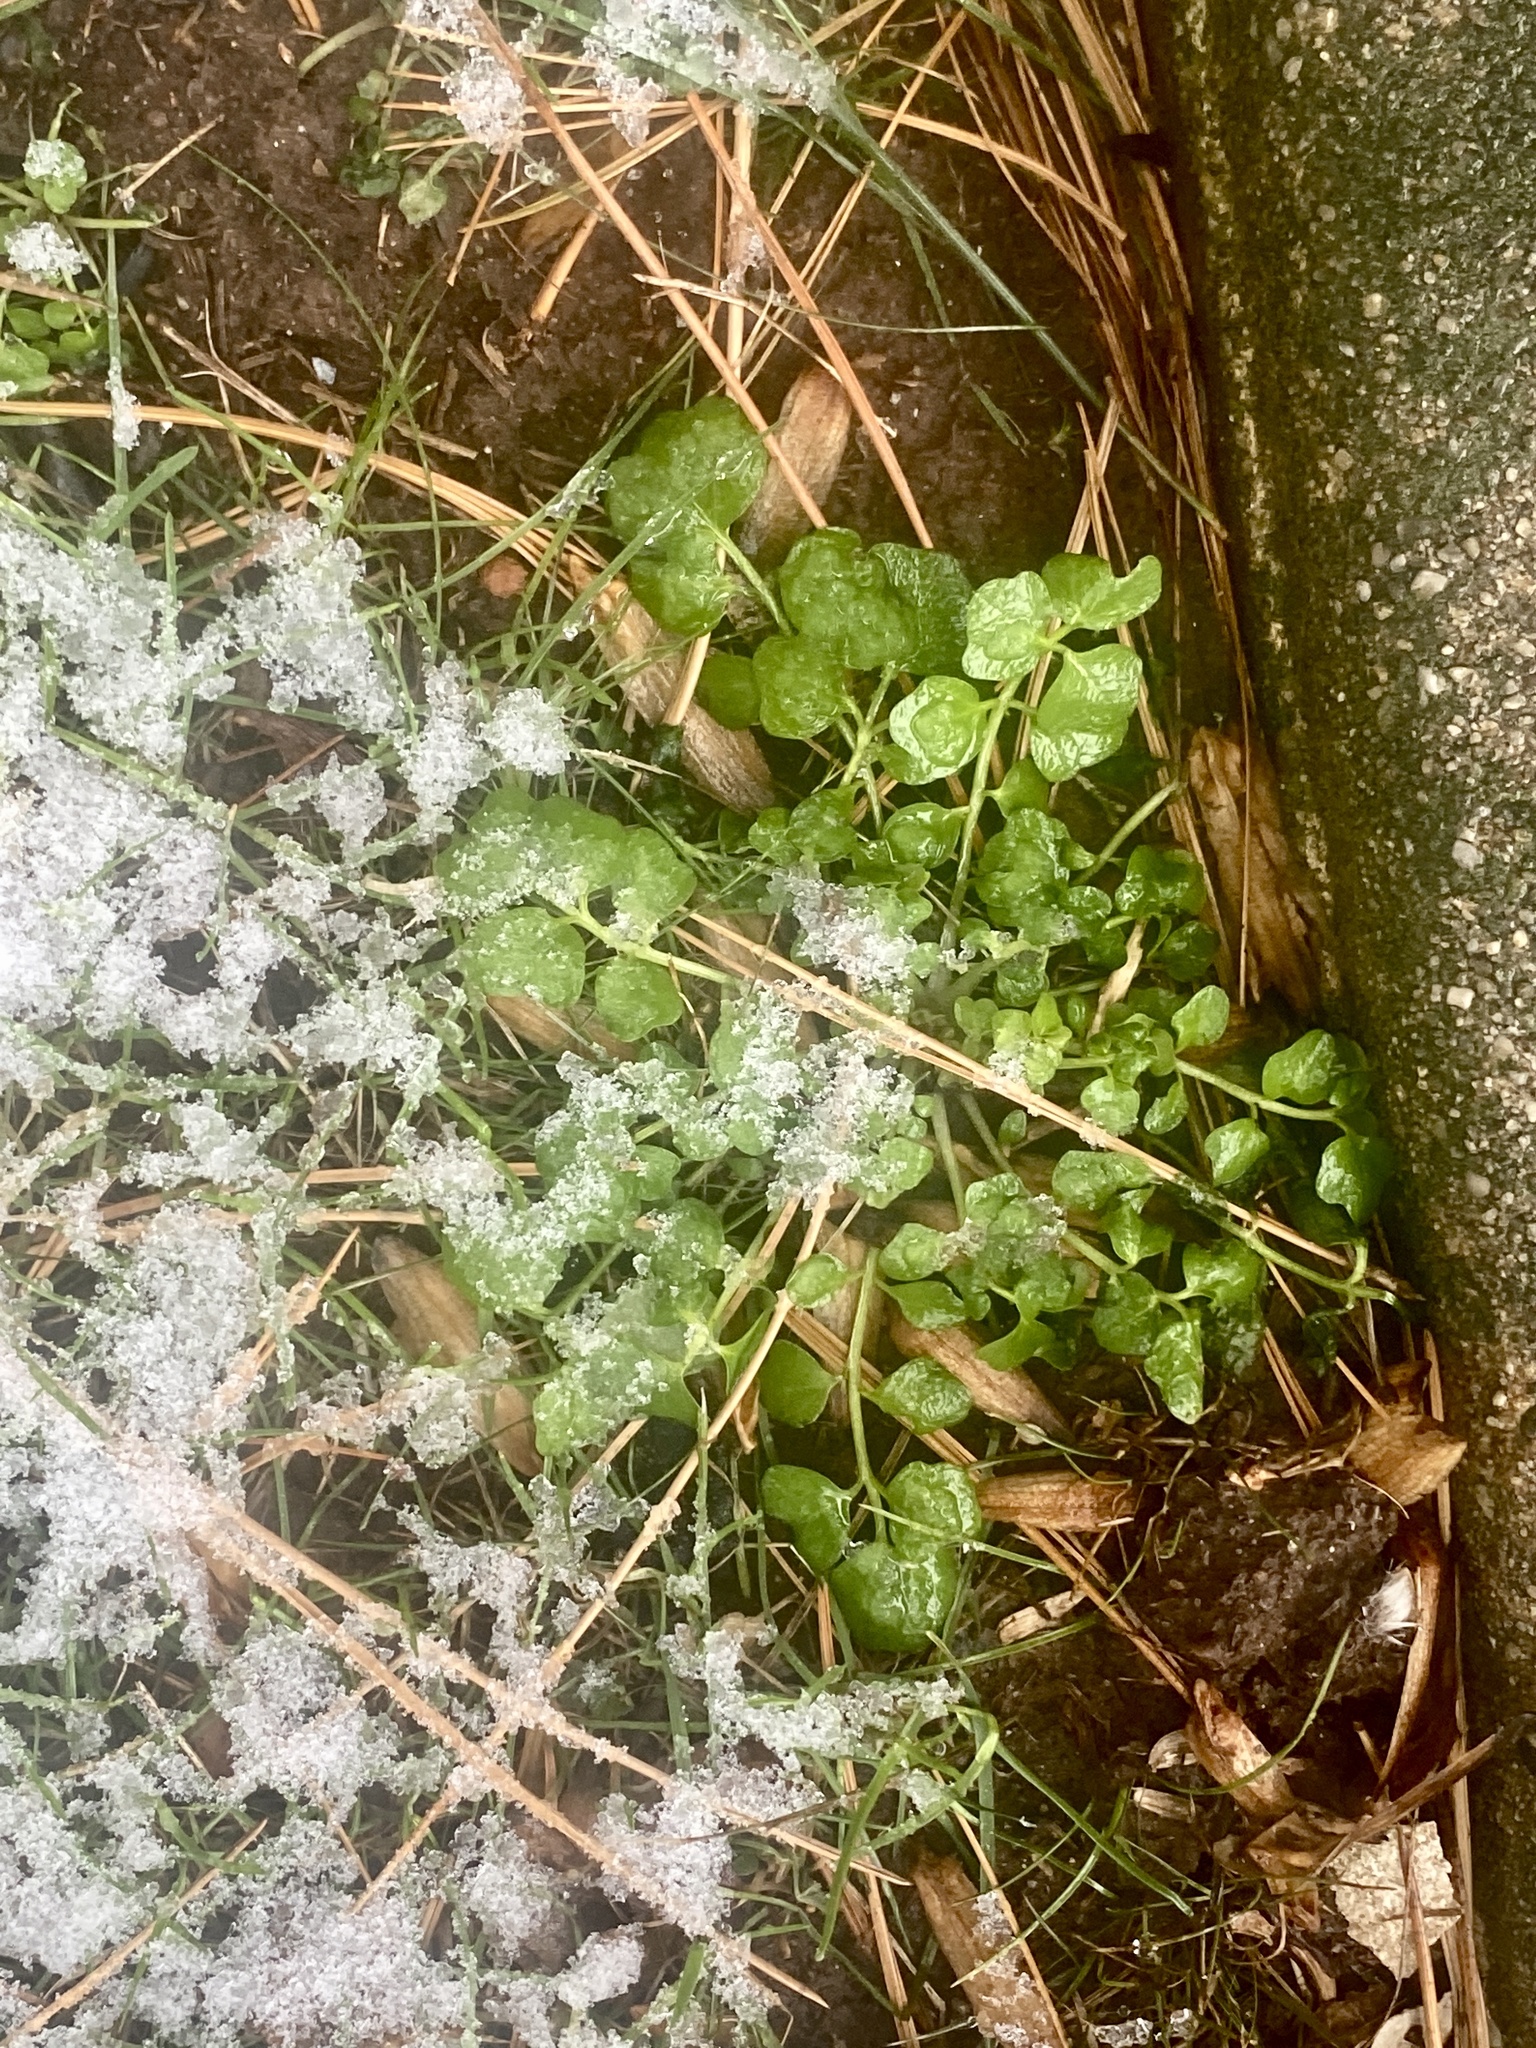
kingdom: Plantae
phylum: Tracheophyta
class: Magnoliopsida
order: Brassicales
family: Brassicaceae
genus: Cardamine
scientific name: Cardamine hirsuta
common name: Hairy bittercress
